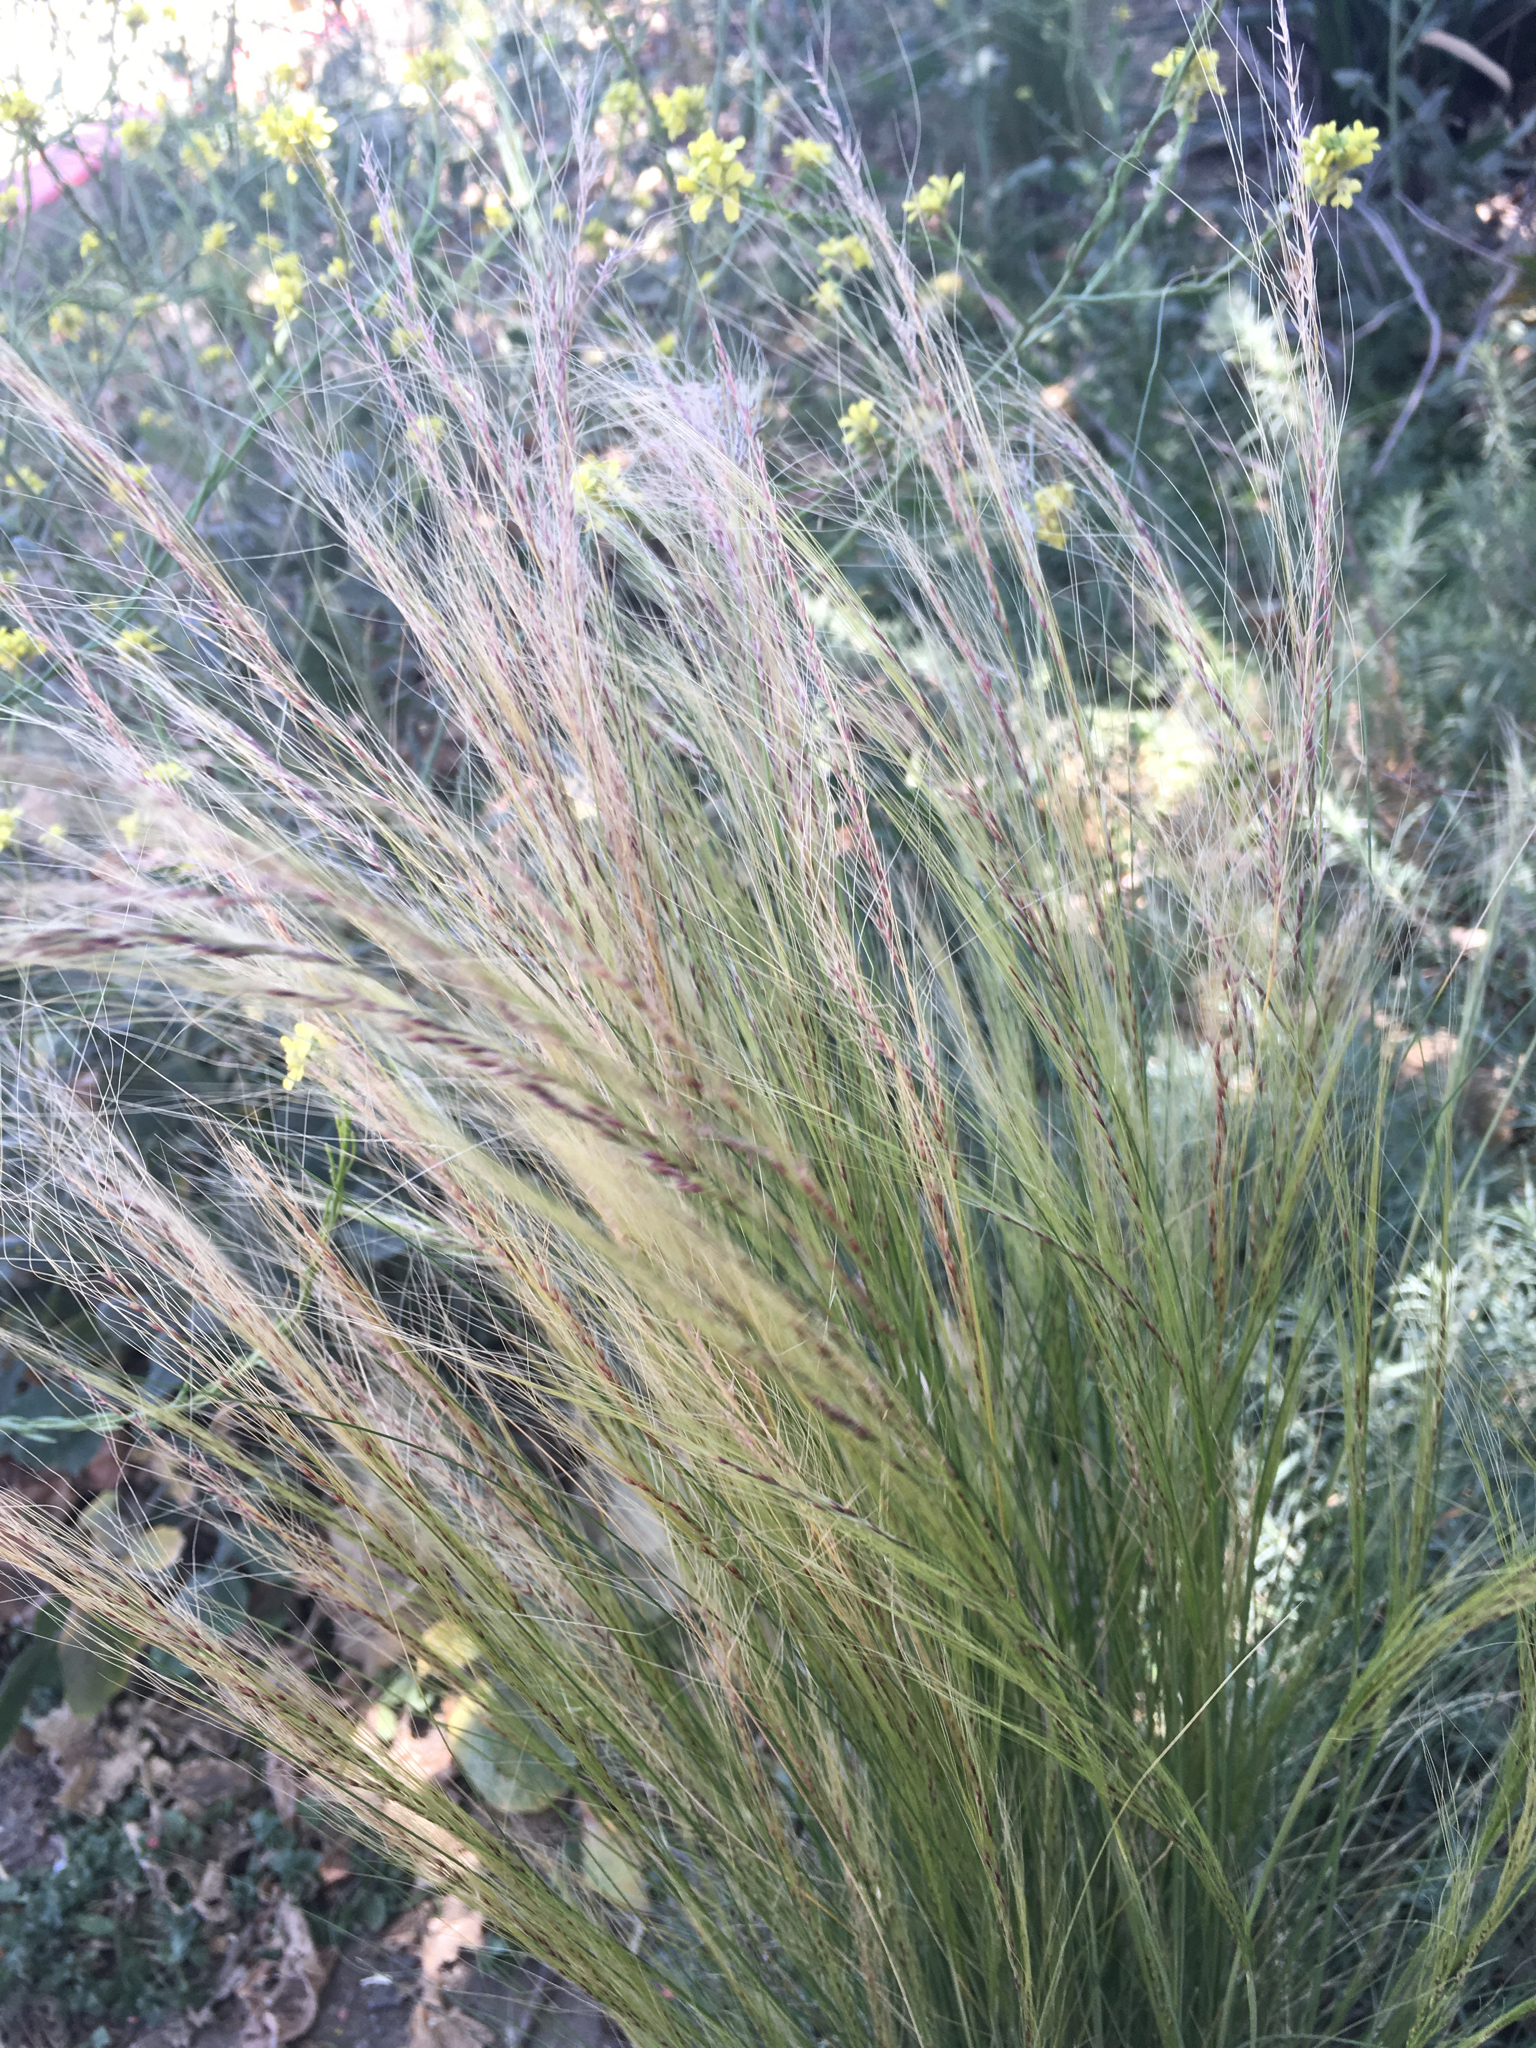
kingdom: Plantae
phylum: Tracheophyta
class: Liliopsida
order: Poales
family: Poaceae
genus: Nassella
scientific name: Nassella tenuissima
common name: Argentine needlegrass
